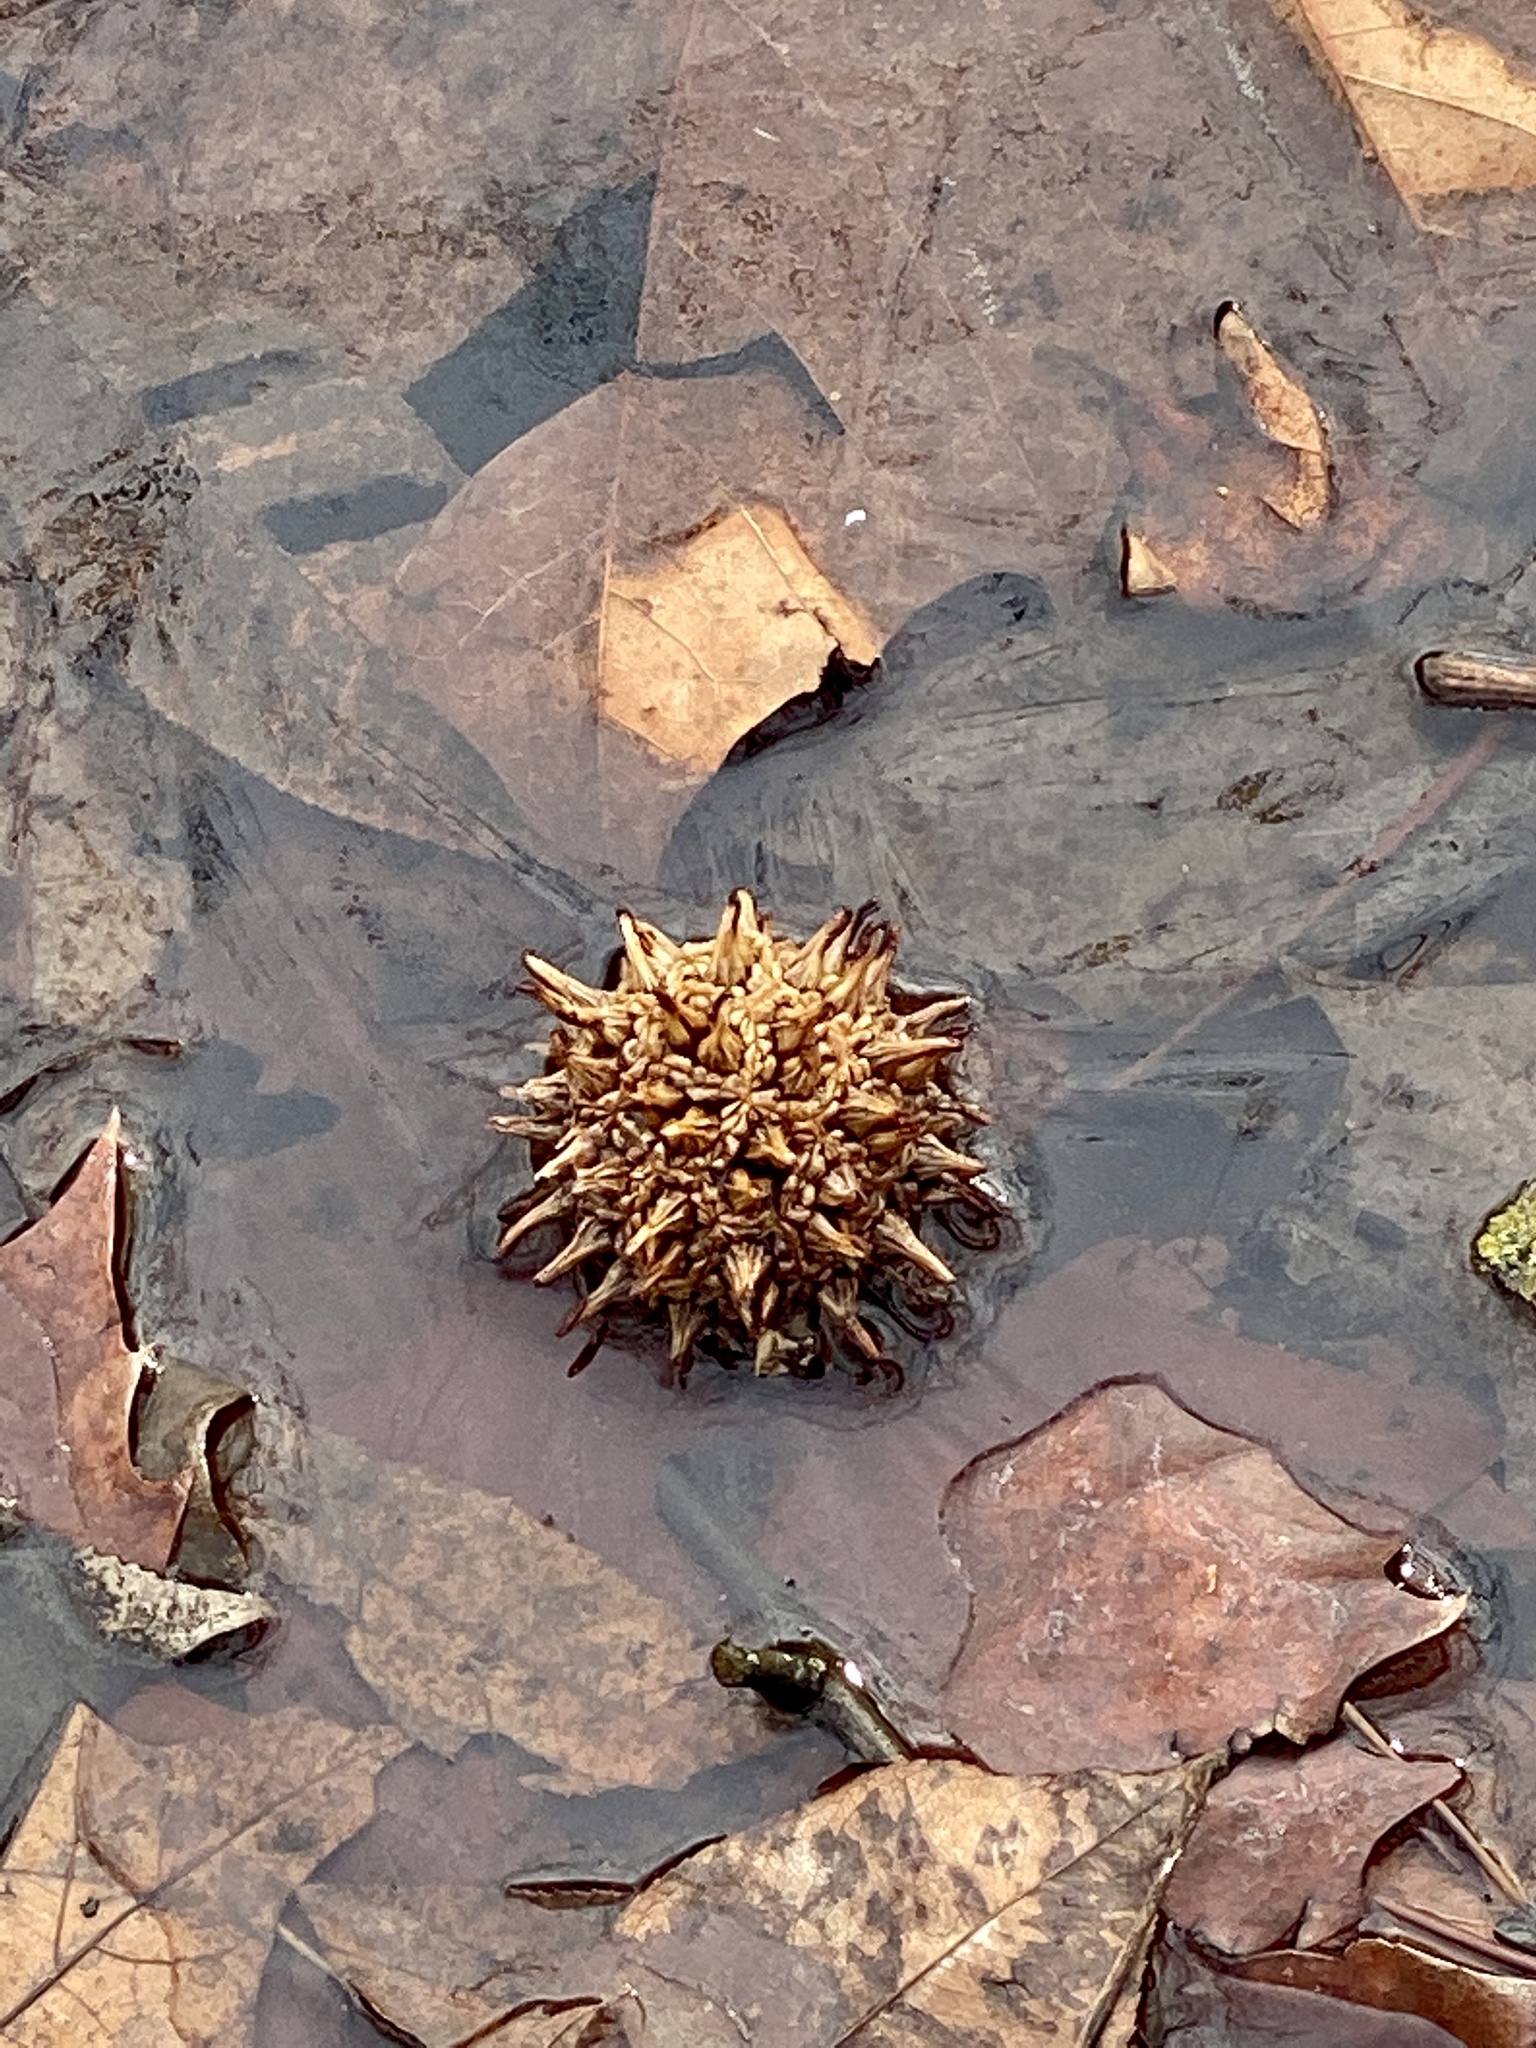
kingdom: Plantae
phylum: Tracheophyta
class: Magnoliopsida
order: Saxifragales
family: Altingiaceae
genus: Liquidambar
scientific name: Liquidambar styraciflua
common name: Sweet gum
